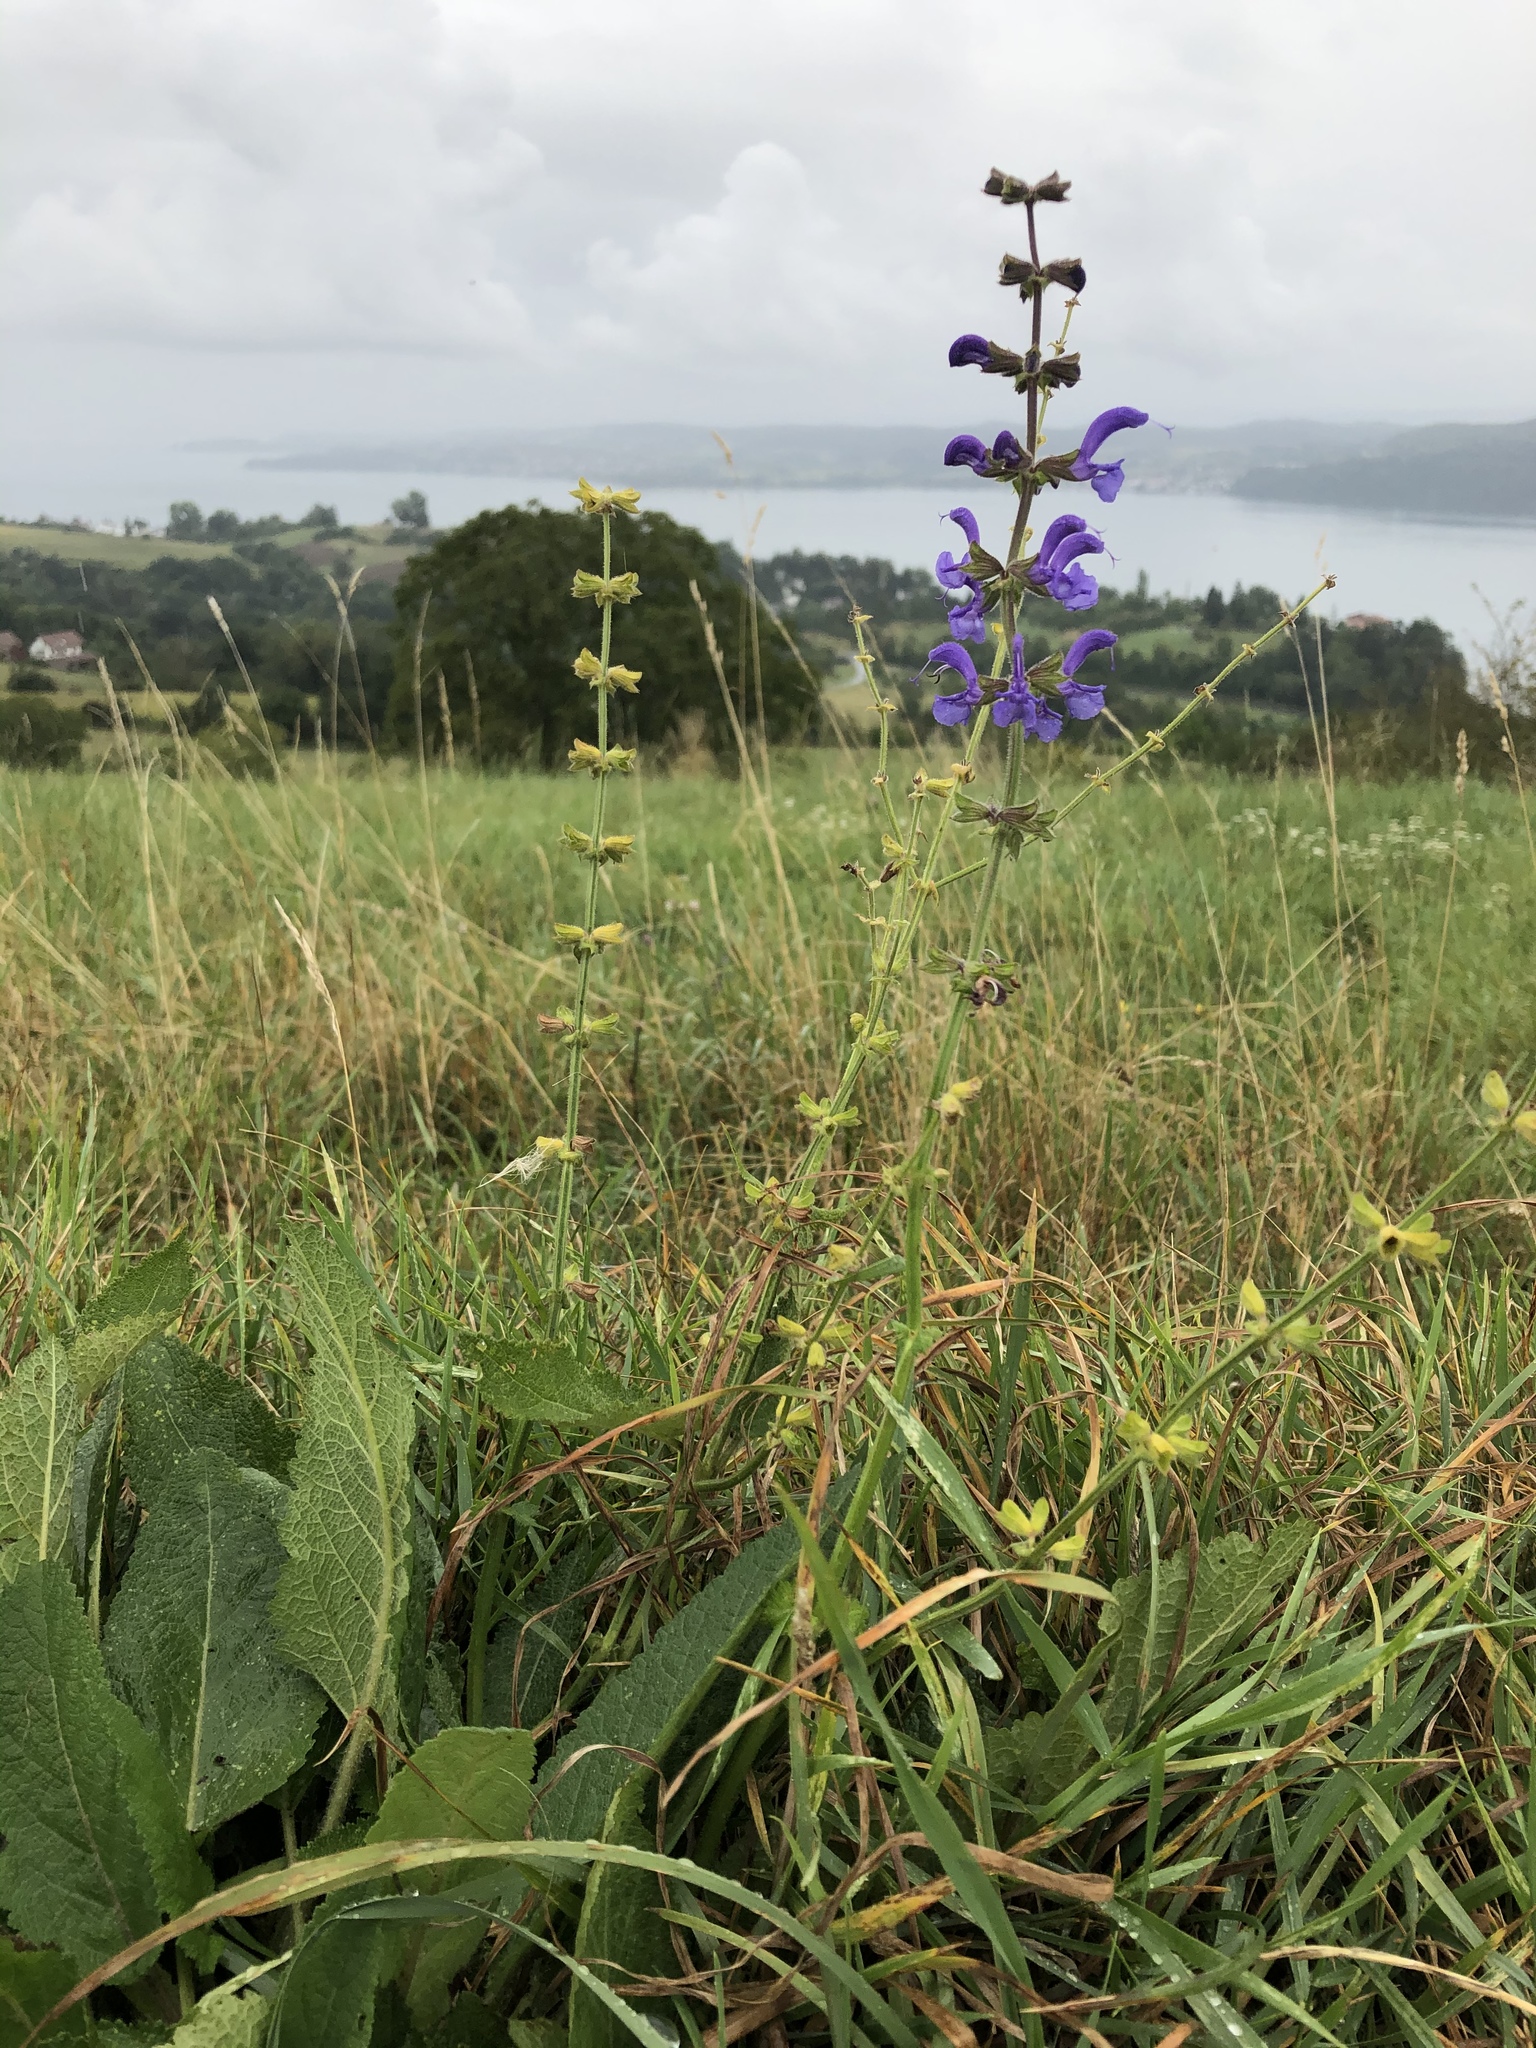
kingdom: Plantae
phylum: Tracheophyta
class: Magnoliopsida
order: Lamiales
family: Lamiaceae
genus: Salvia
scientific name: Salvia pratensis
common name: Meadow sage
